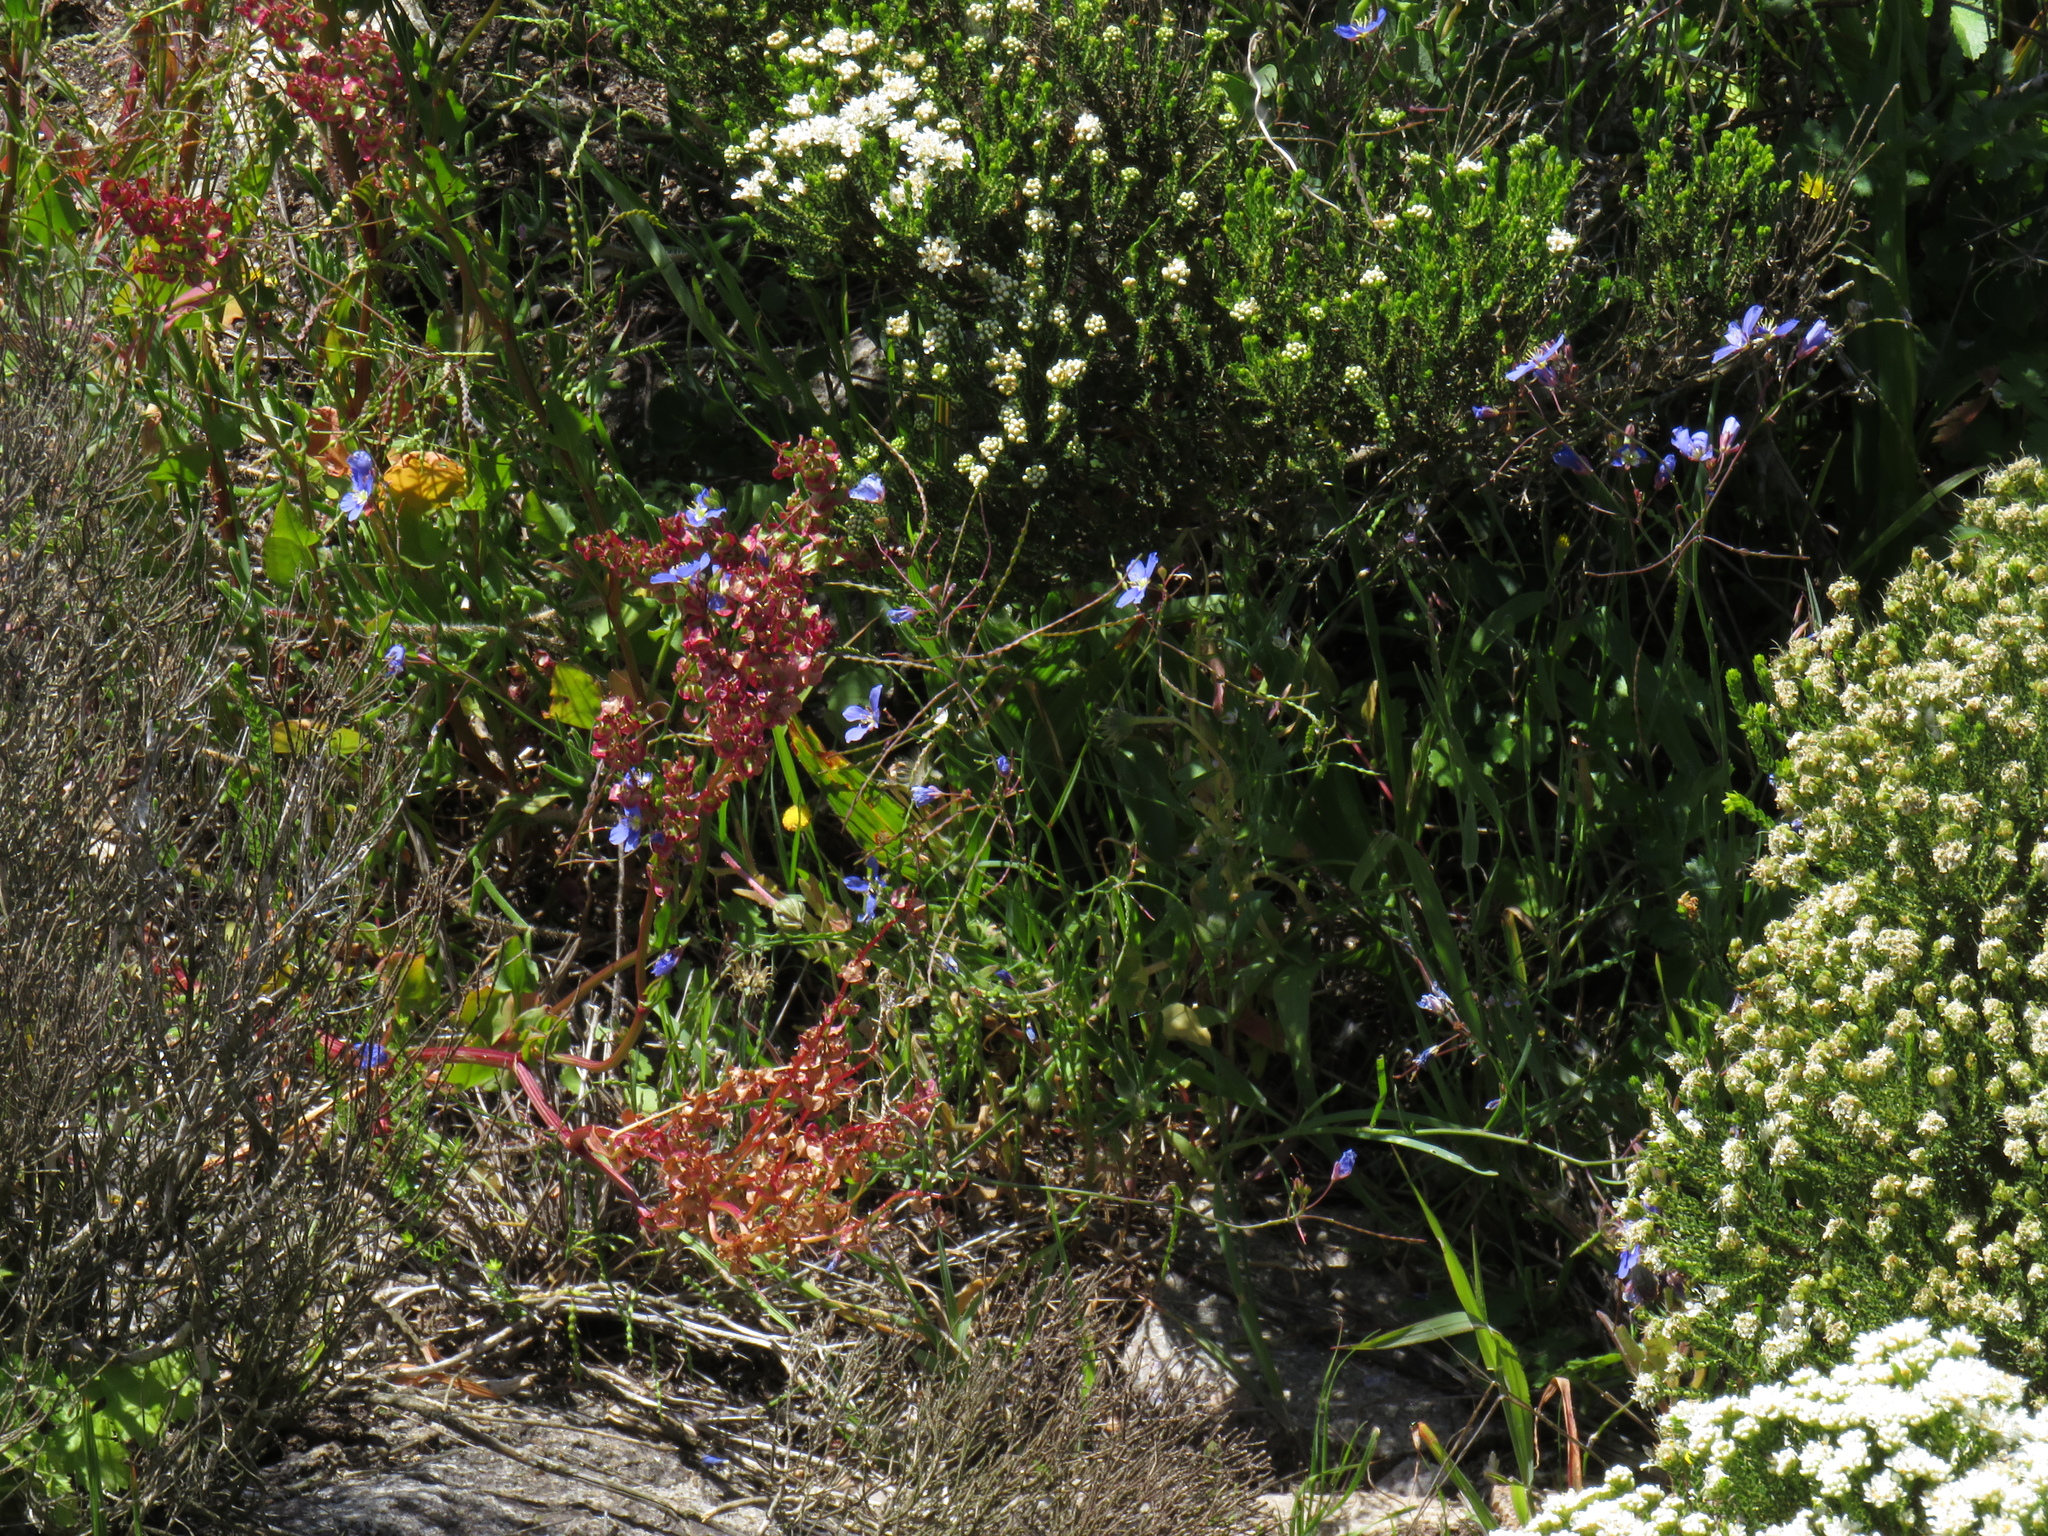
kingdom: Plantae
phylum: Tracheophyta
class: Magnoliopsida
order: Brassicales
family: Brassicaceae
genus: Heliophila
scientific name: Heliophila coronopifolia
